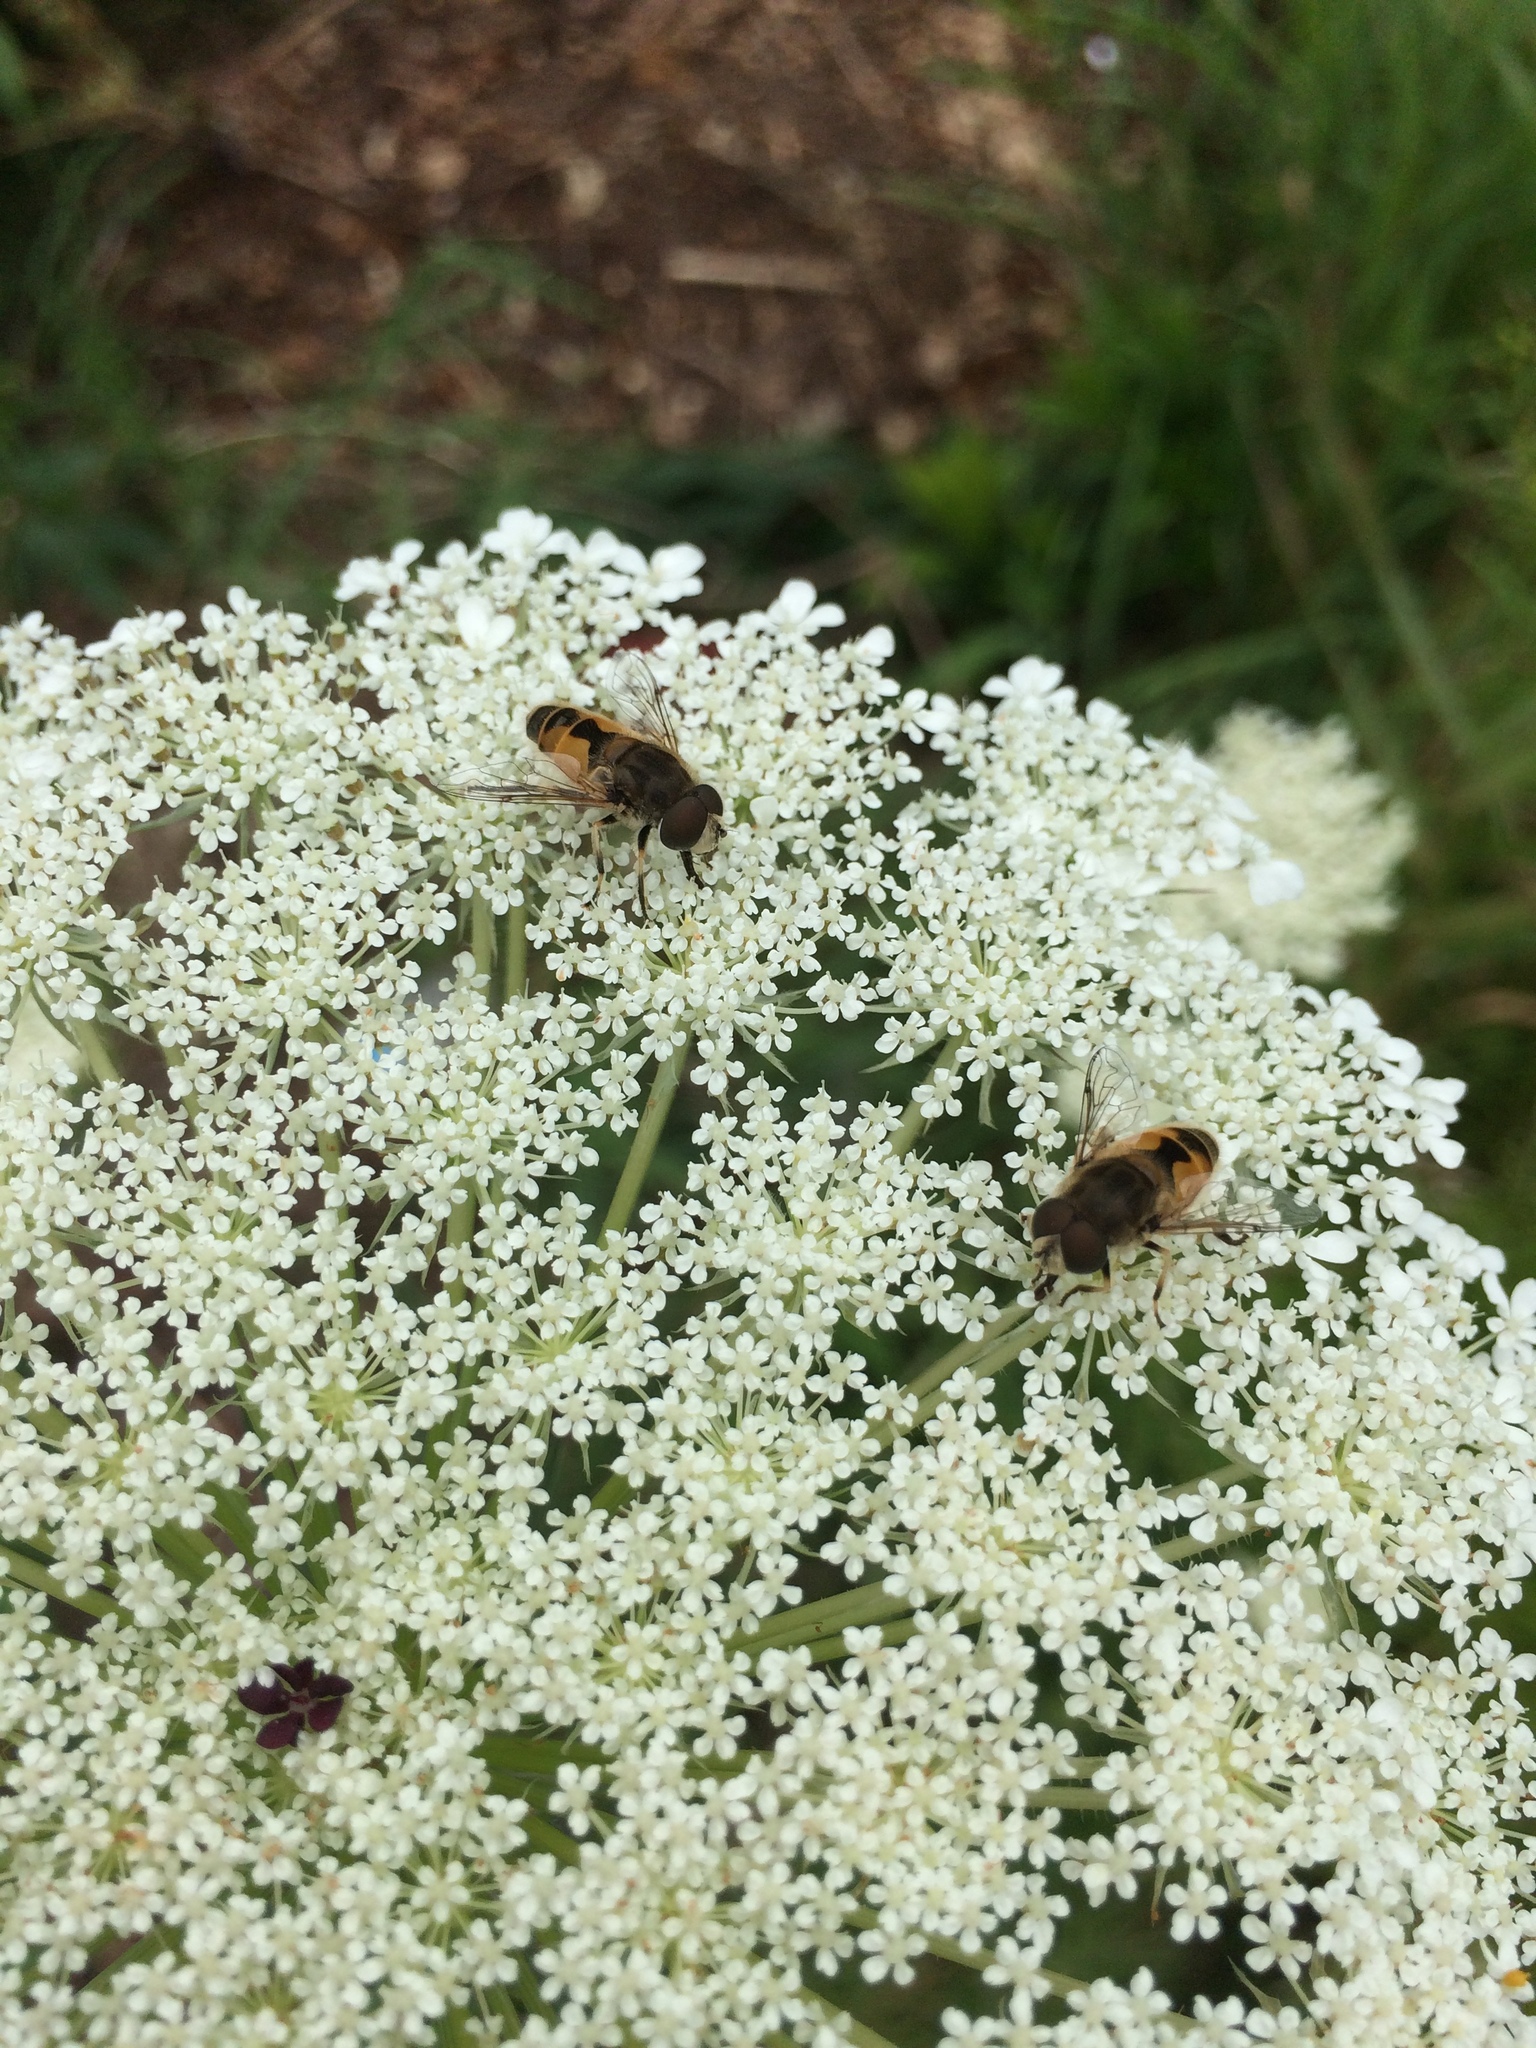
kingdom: Animalia
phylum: Arthropoda
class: Insecta
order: Diptera
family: Syrphidae
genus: Eristalis
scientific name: Eristalis arbustorum
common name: Hover fly
